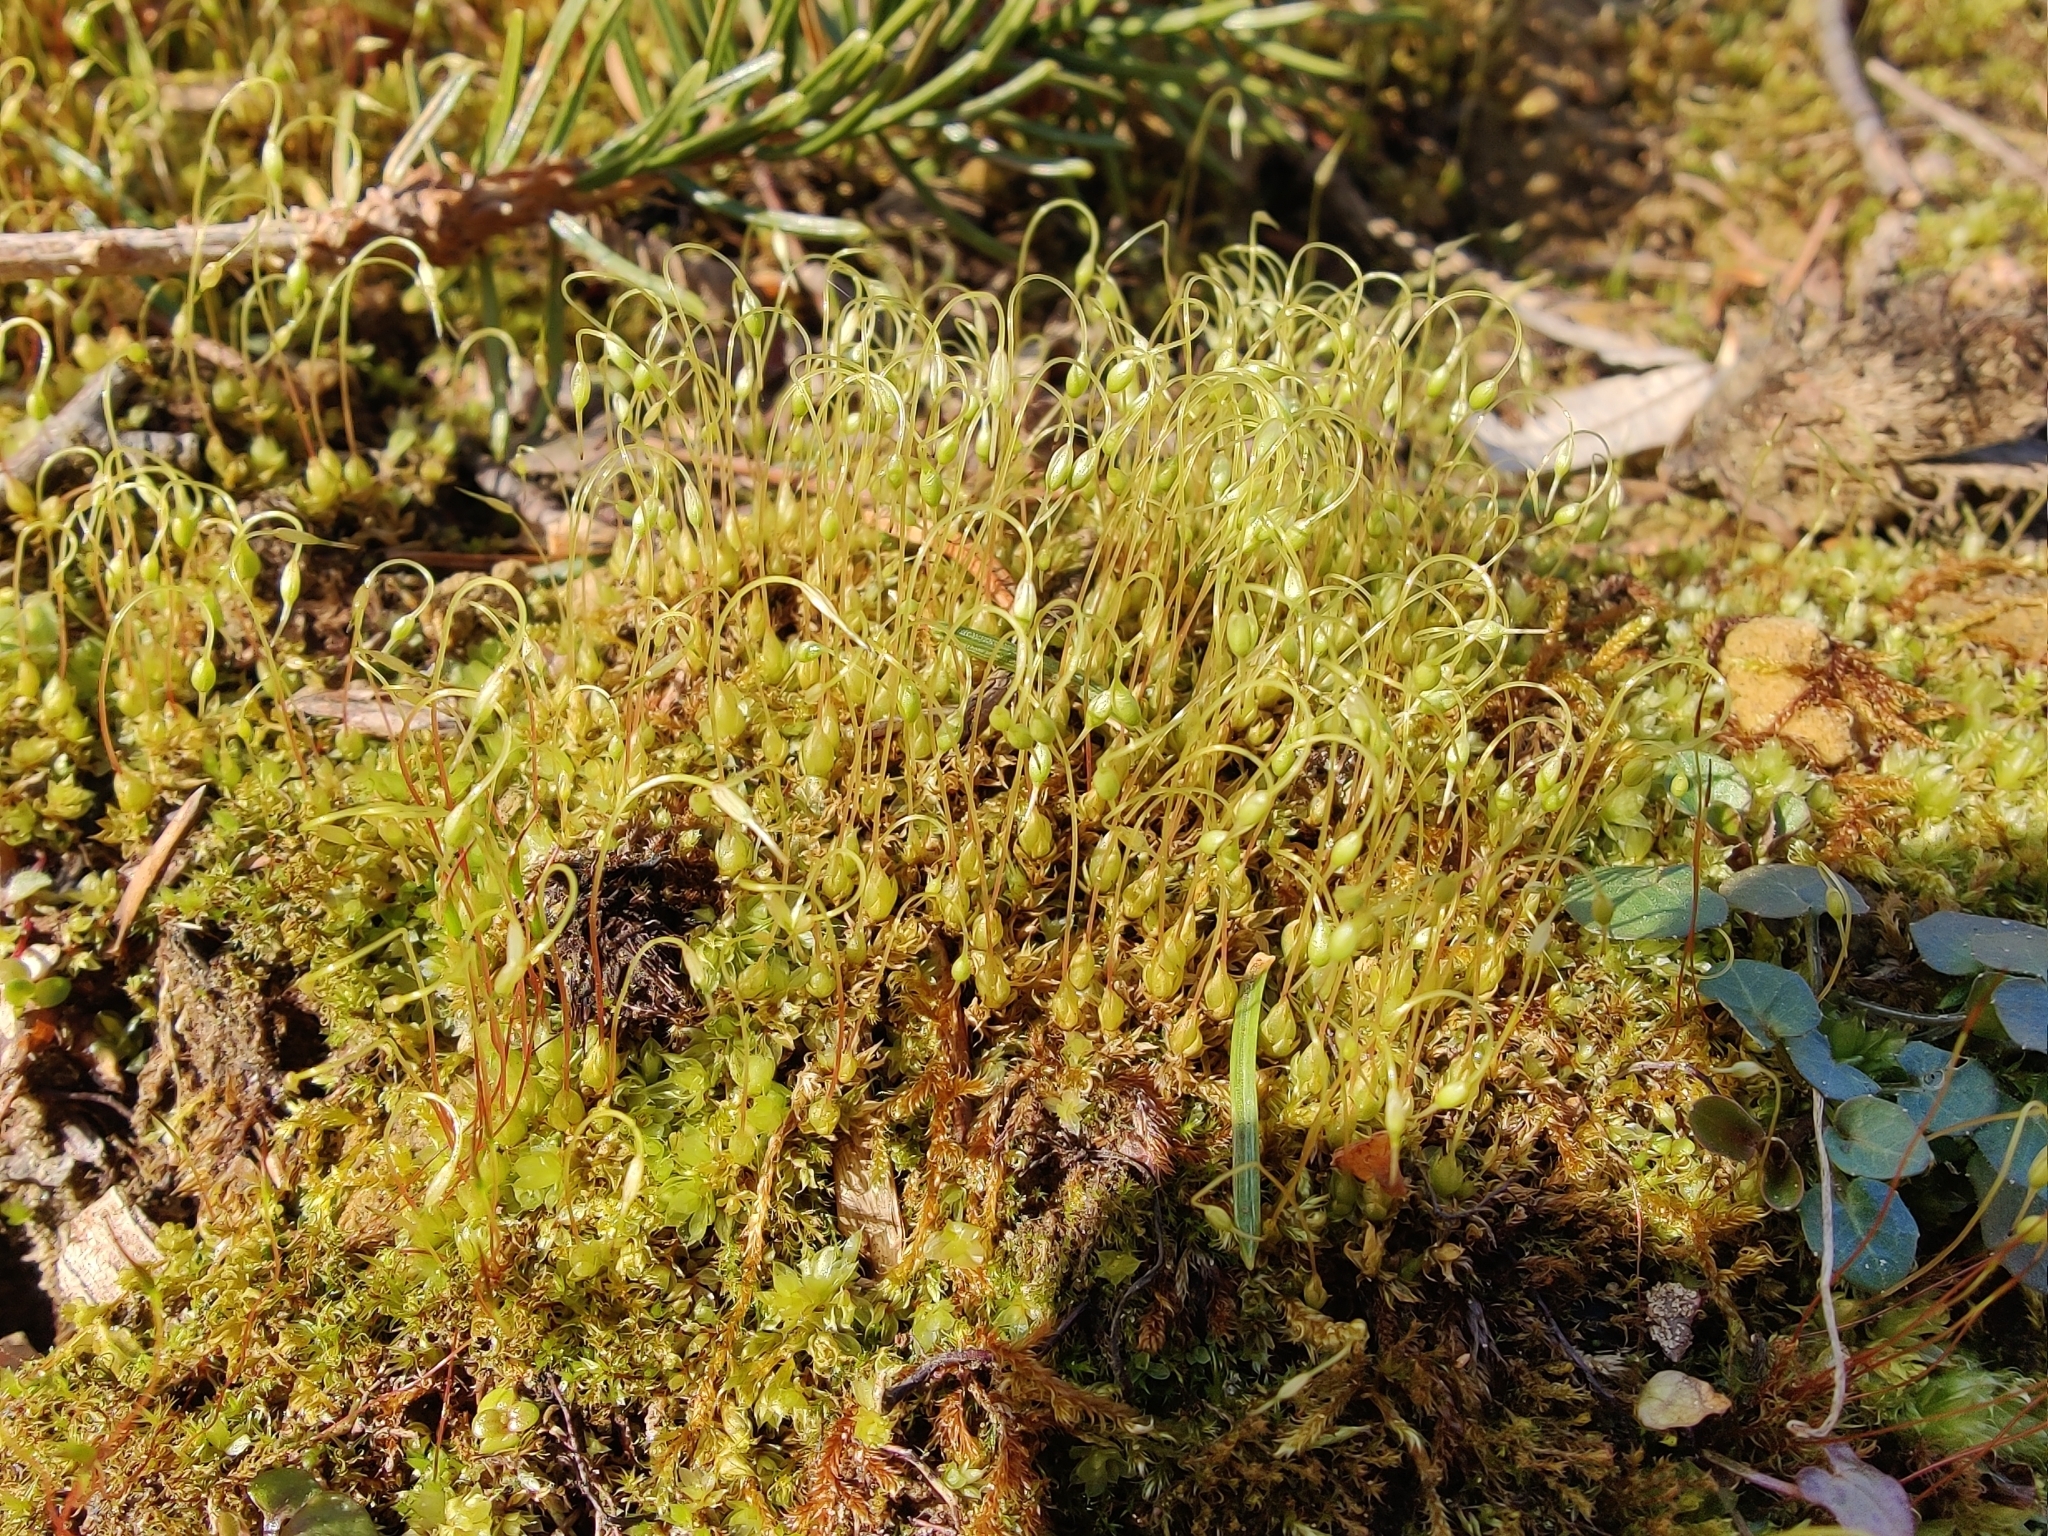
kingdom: Plantae
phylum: Bryophyta
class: Bryopsida
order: Funariales
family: Funariaceae
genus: Funaria
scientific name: Funaria hygrometrica
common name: Common cord moss
